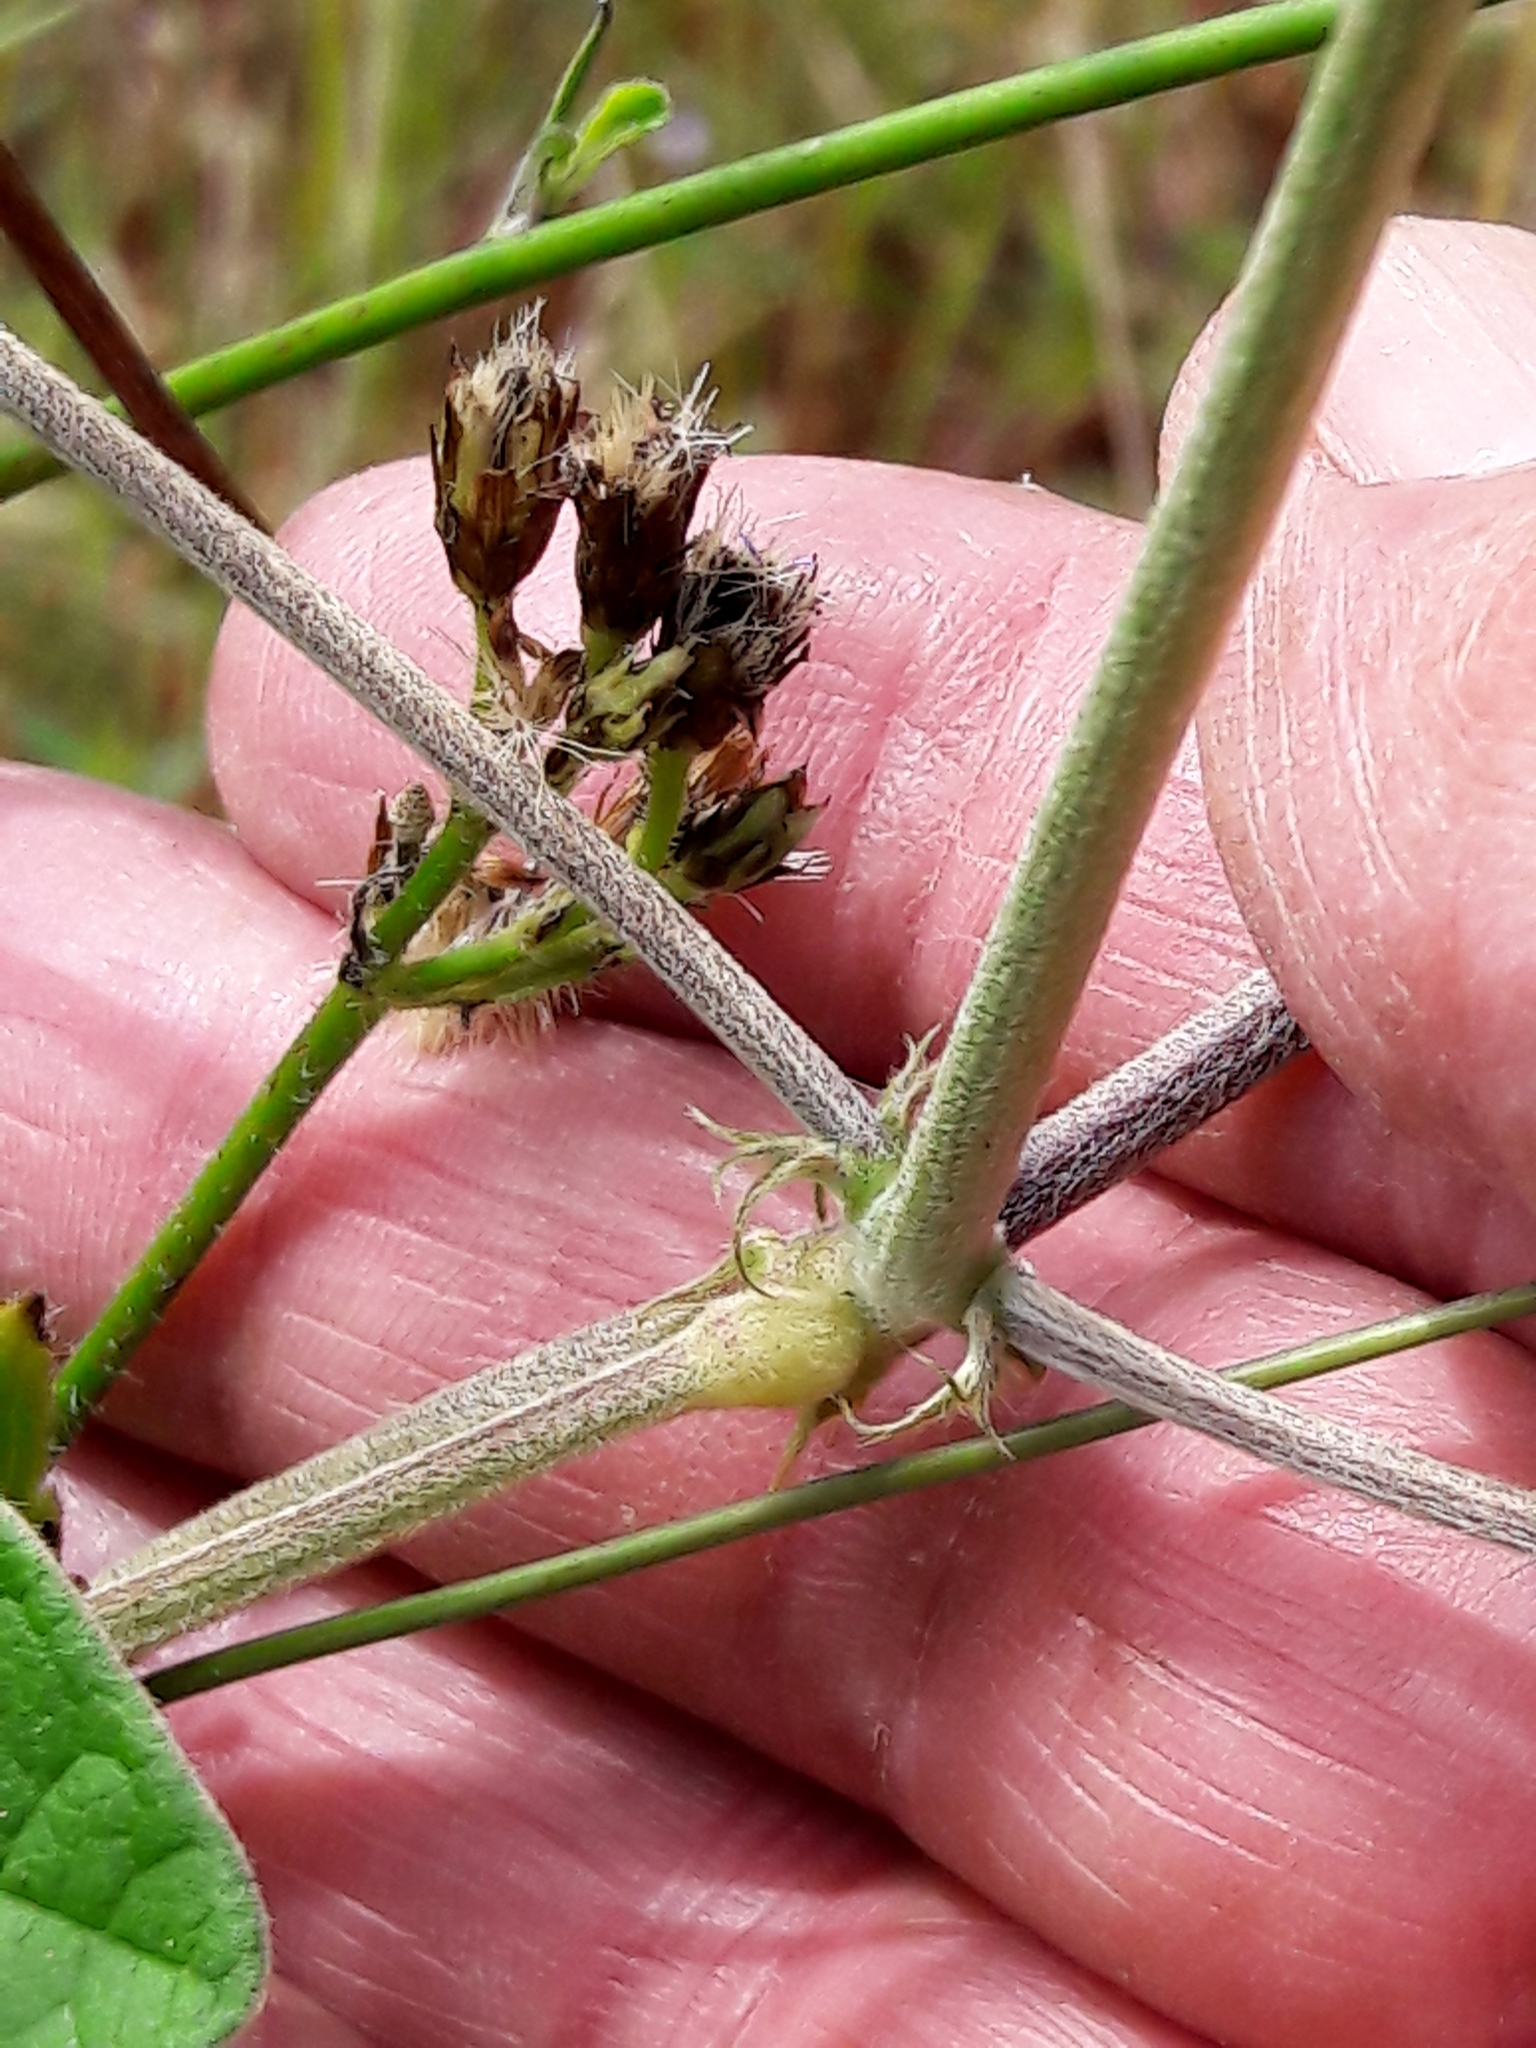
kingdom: Plantae
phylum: Tracheophyta
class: Magnoliopsida
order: Fabales
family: Fabaceae
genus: Macroptilium
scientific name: Macroptilium atropurpureum
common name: Purple bushbean
